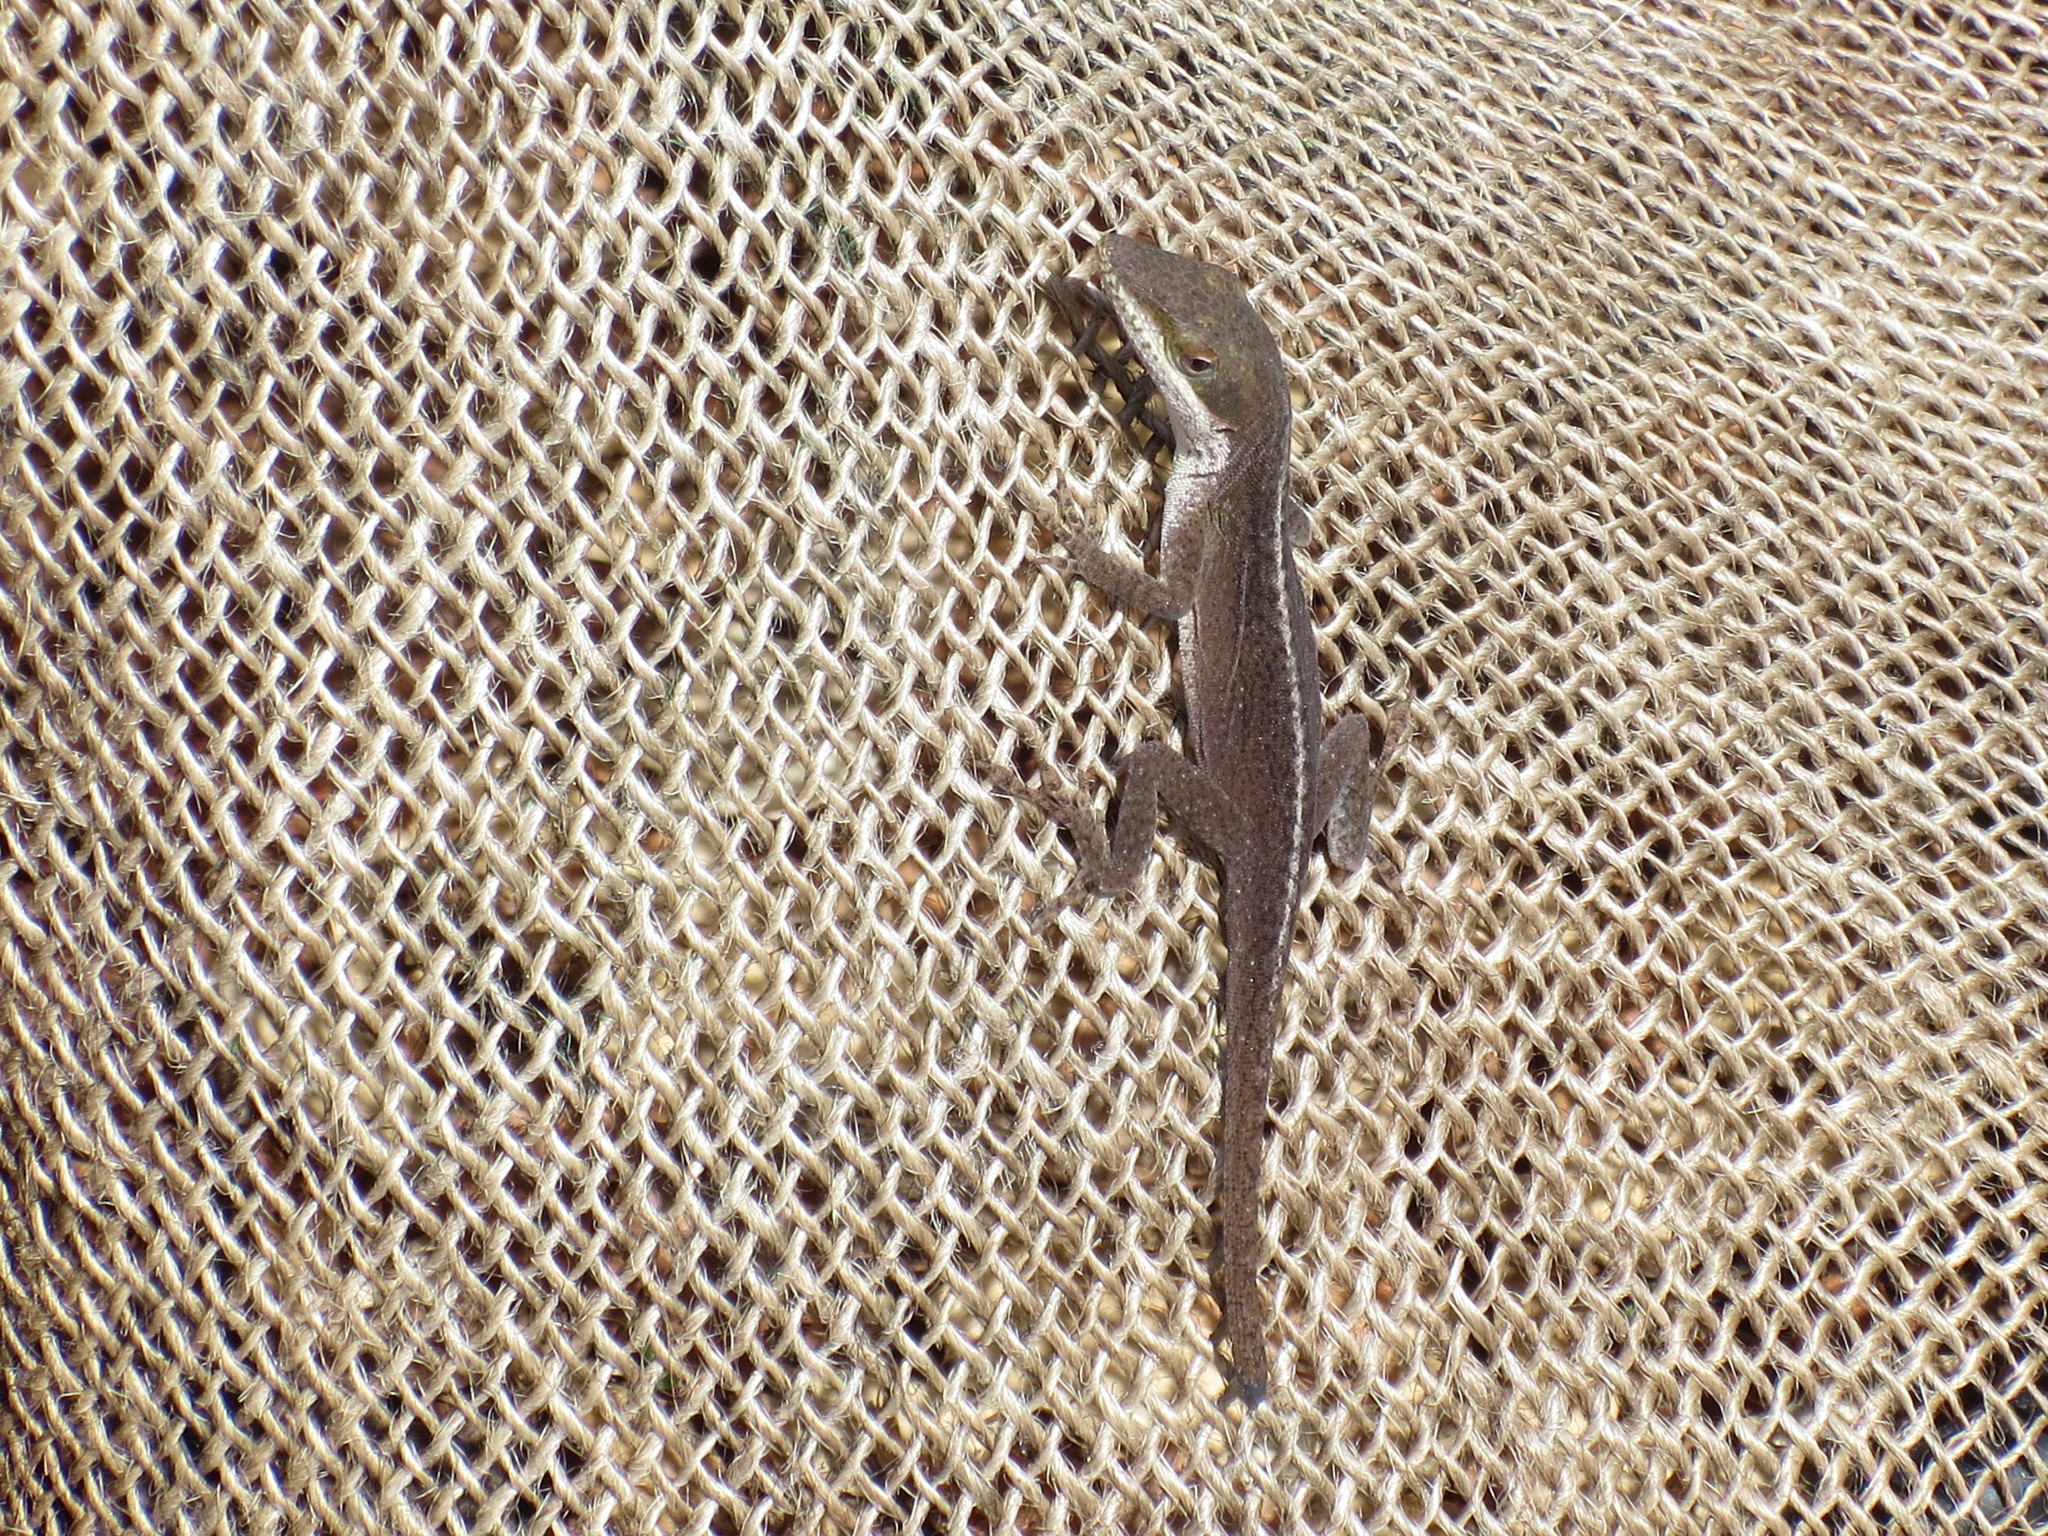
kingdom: Animalia
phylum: Chordata
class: Squamata
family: Dactyloidae
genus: Anolis
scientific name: Anolis carolinensis
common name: Green anole
